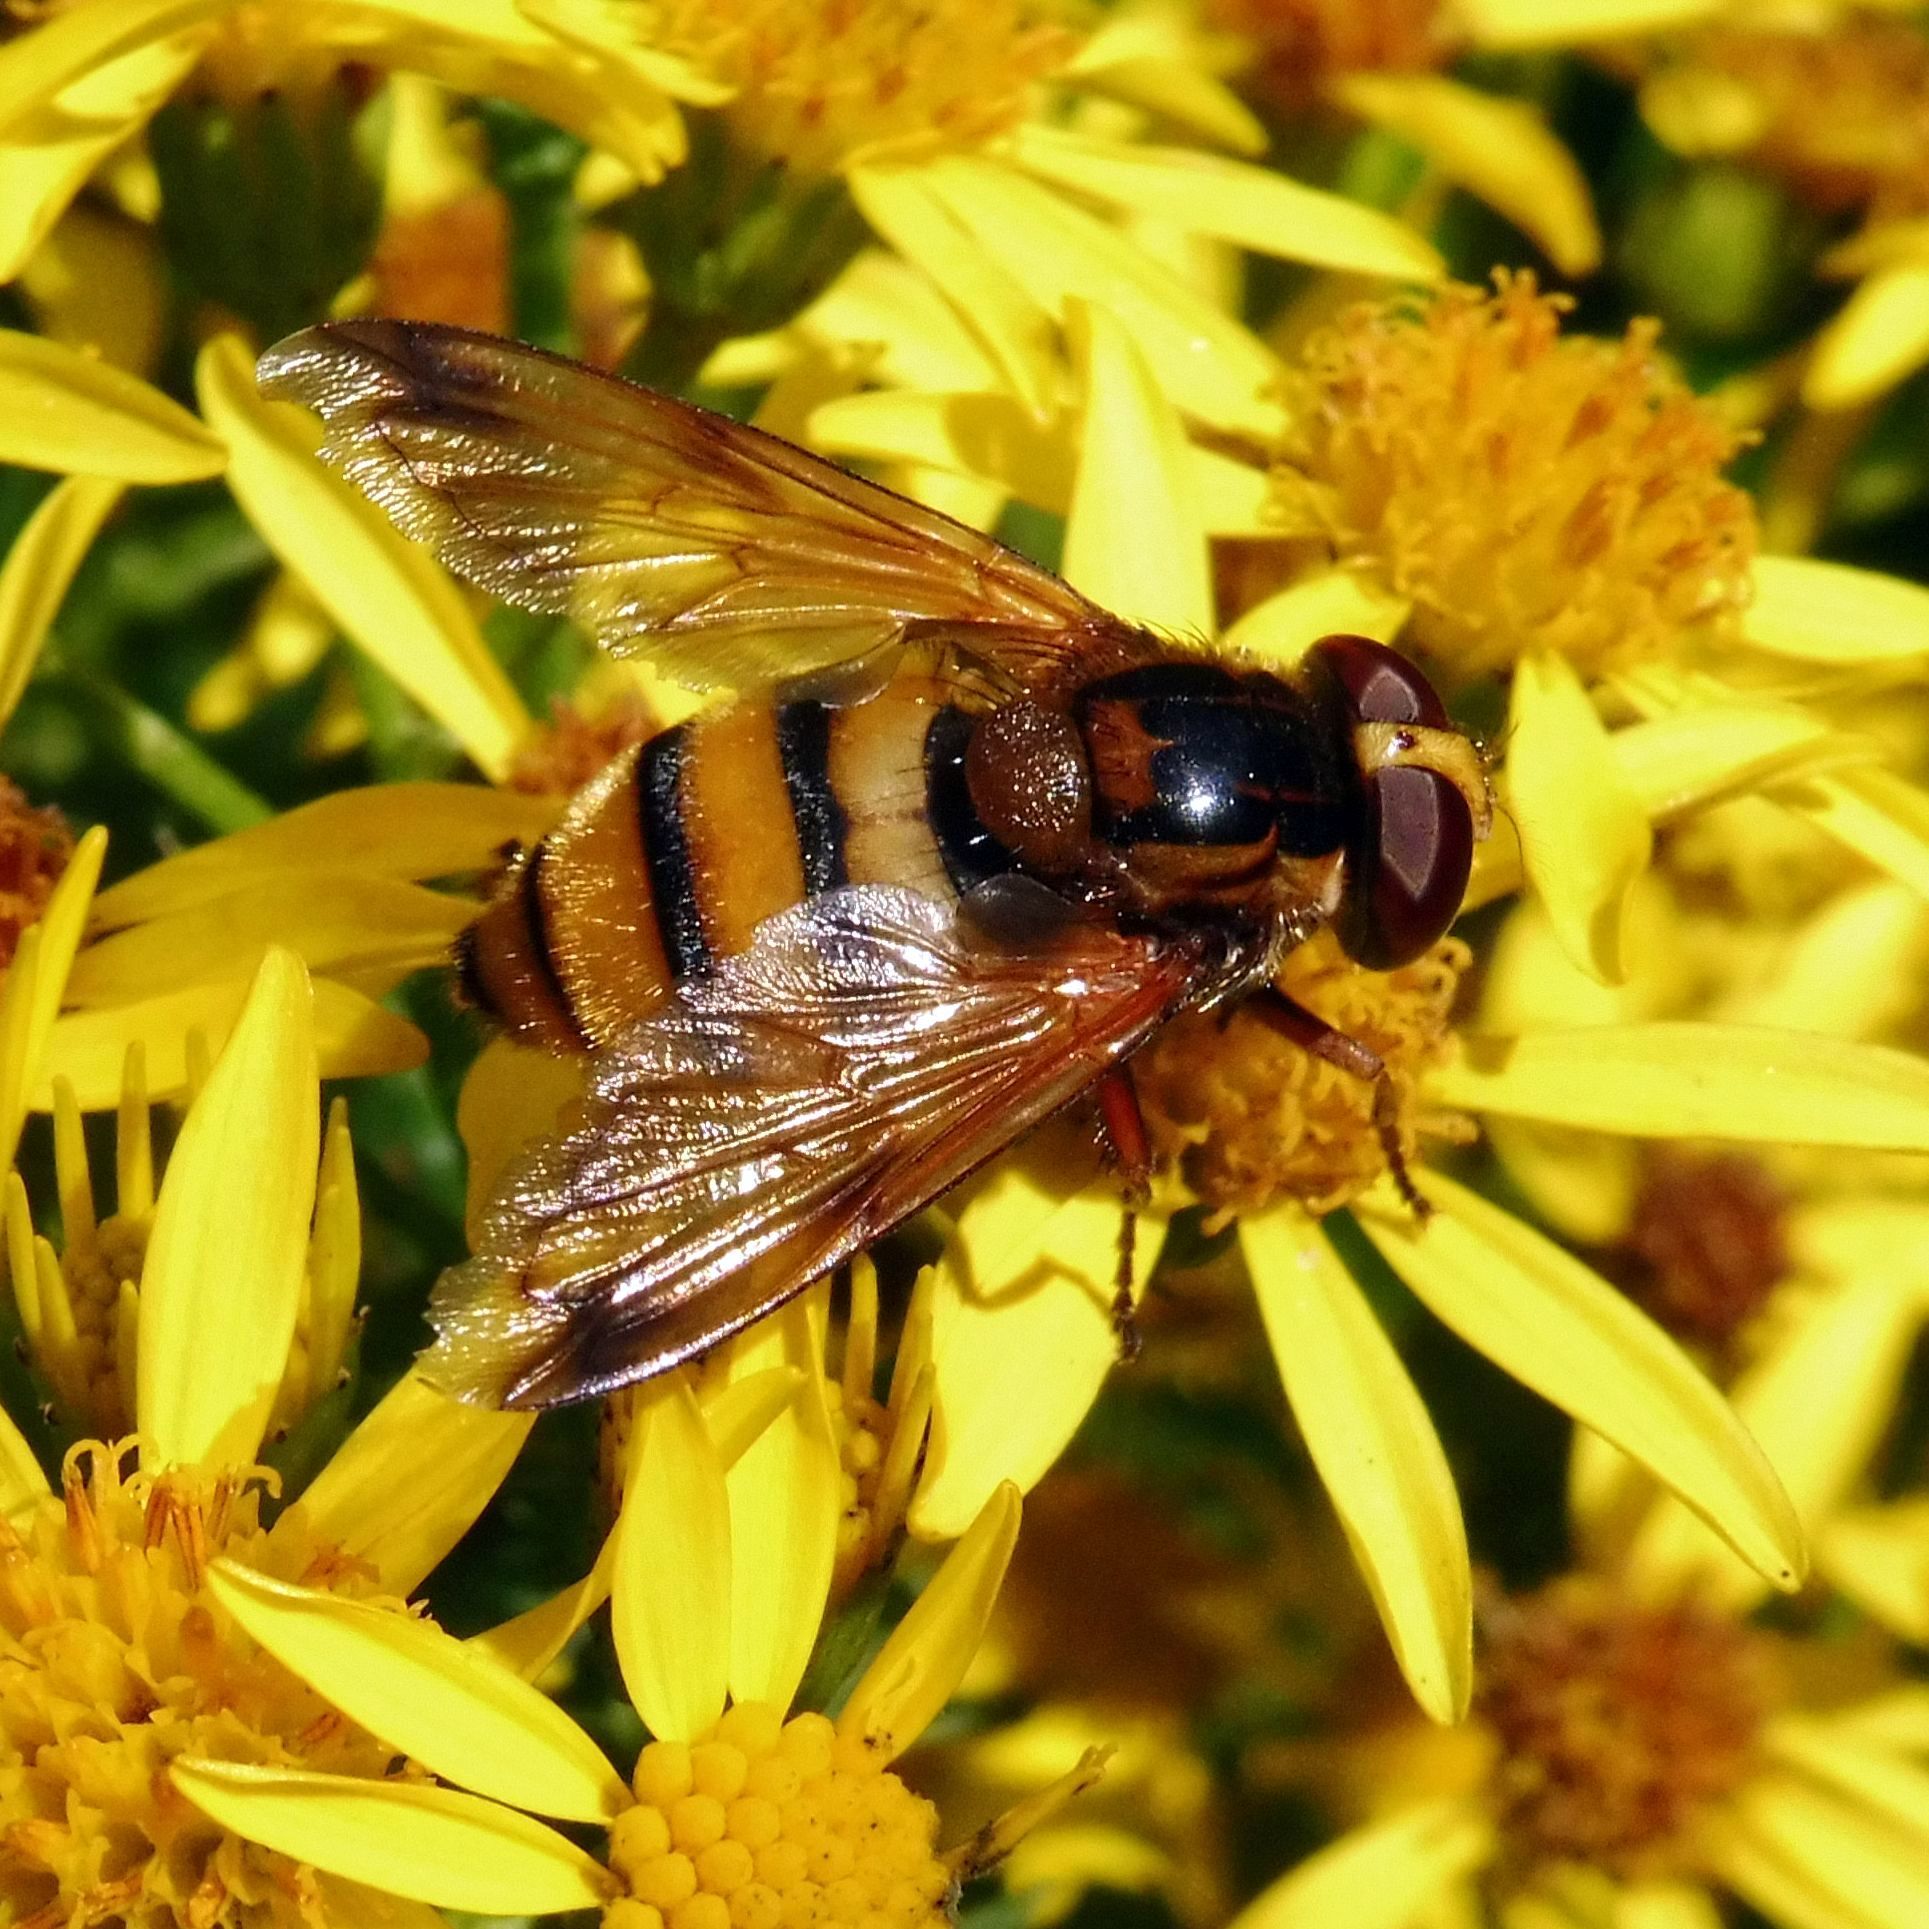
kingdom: Animalia
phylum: Arthropoda
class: Insecta
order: Diptera
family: Syrphidae
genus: Volucella
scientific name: Volucella inanis
